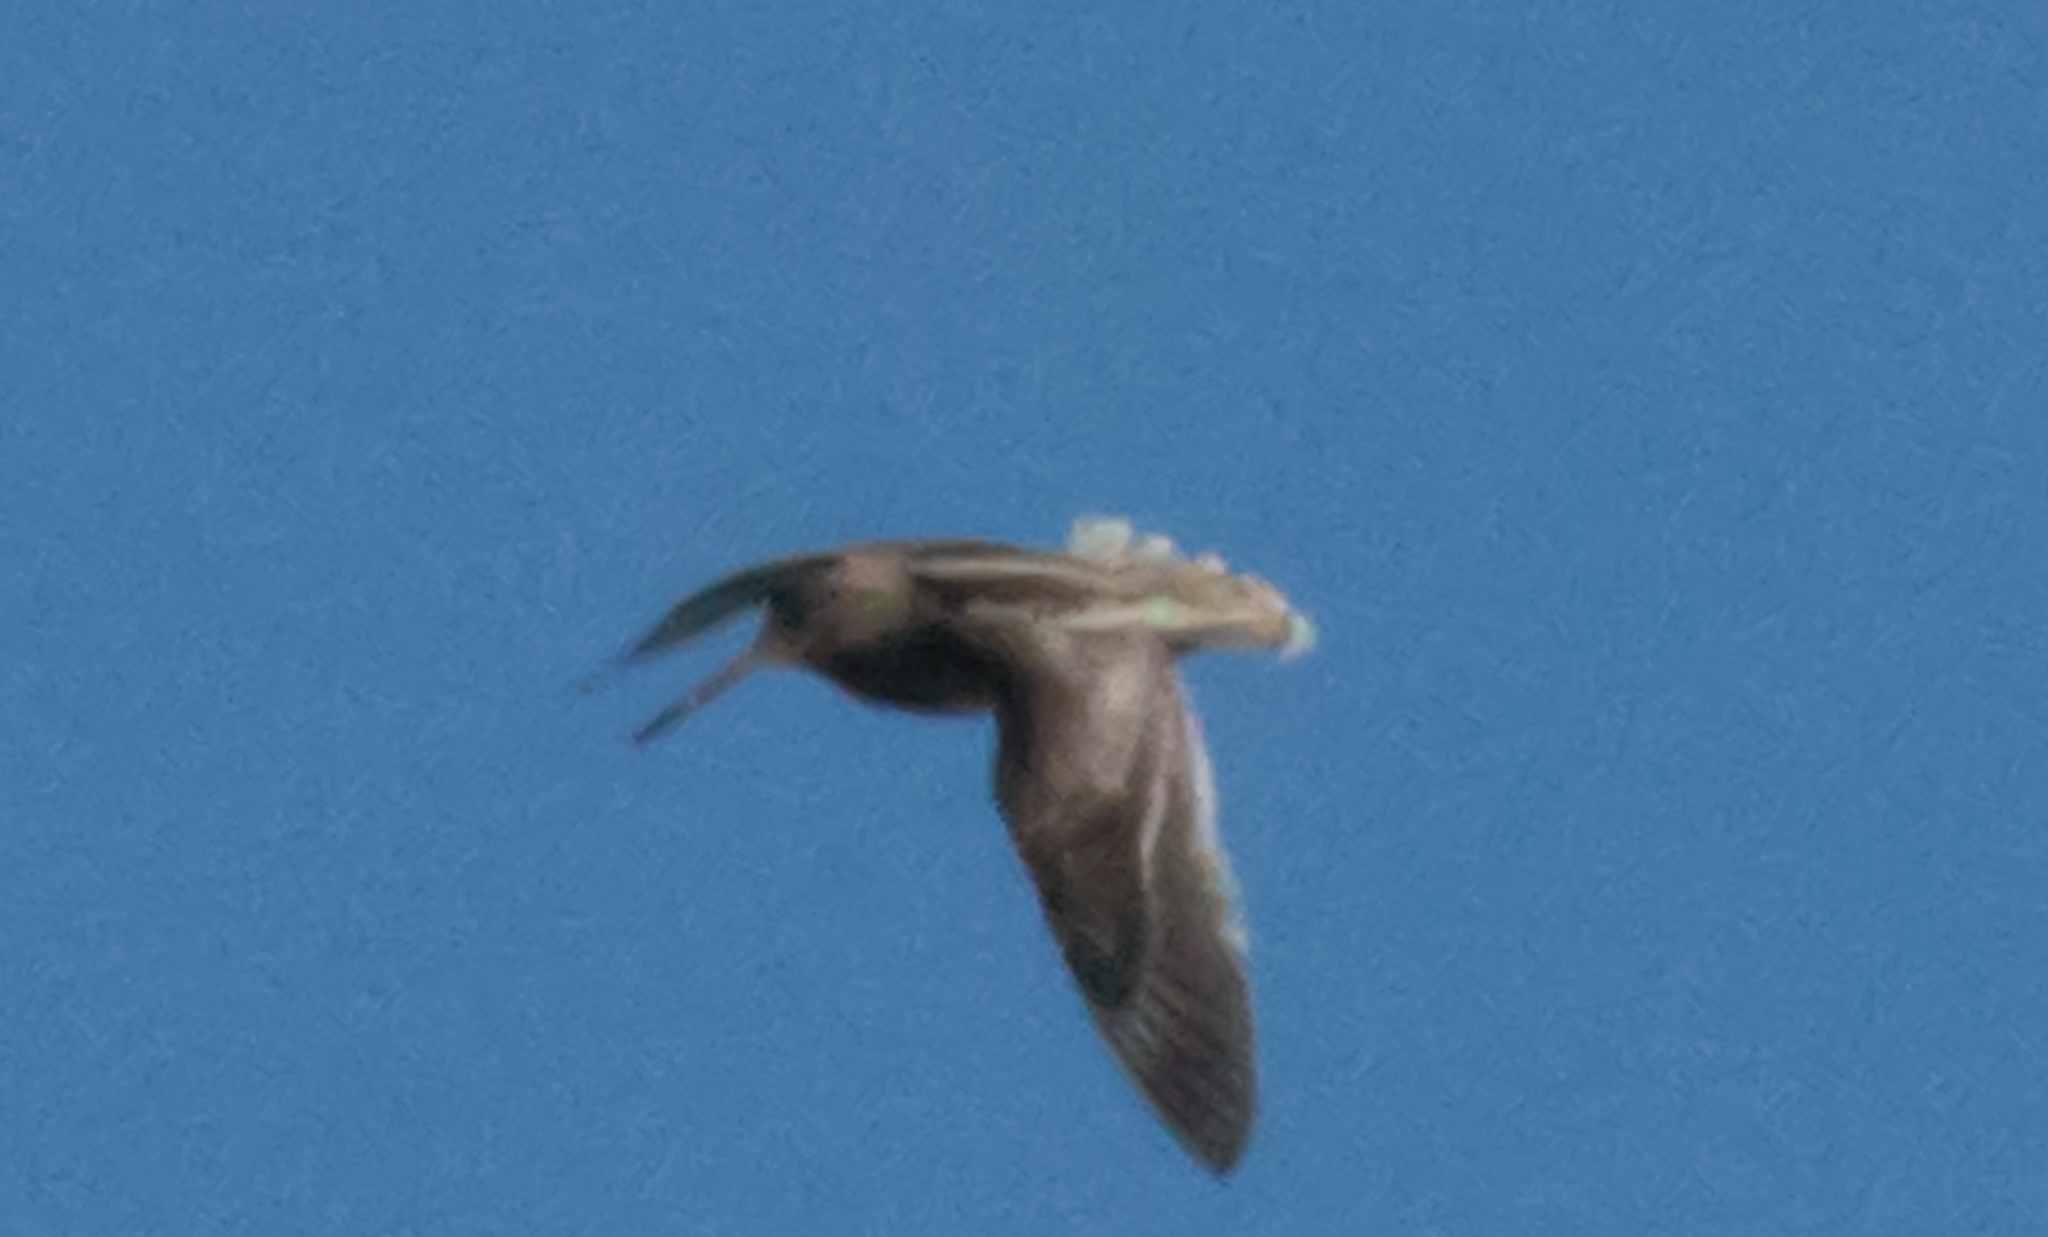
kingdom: Animalia
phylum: Chordata
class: Aves
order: Charadriiformes
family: Scolopacidae
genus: Gallinago
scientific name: Gallinago paraguaiae
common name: South american snipe
